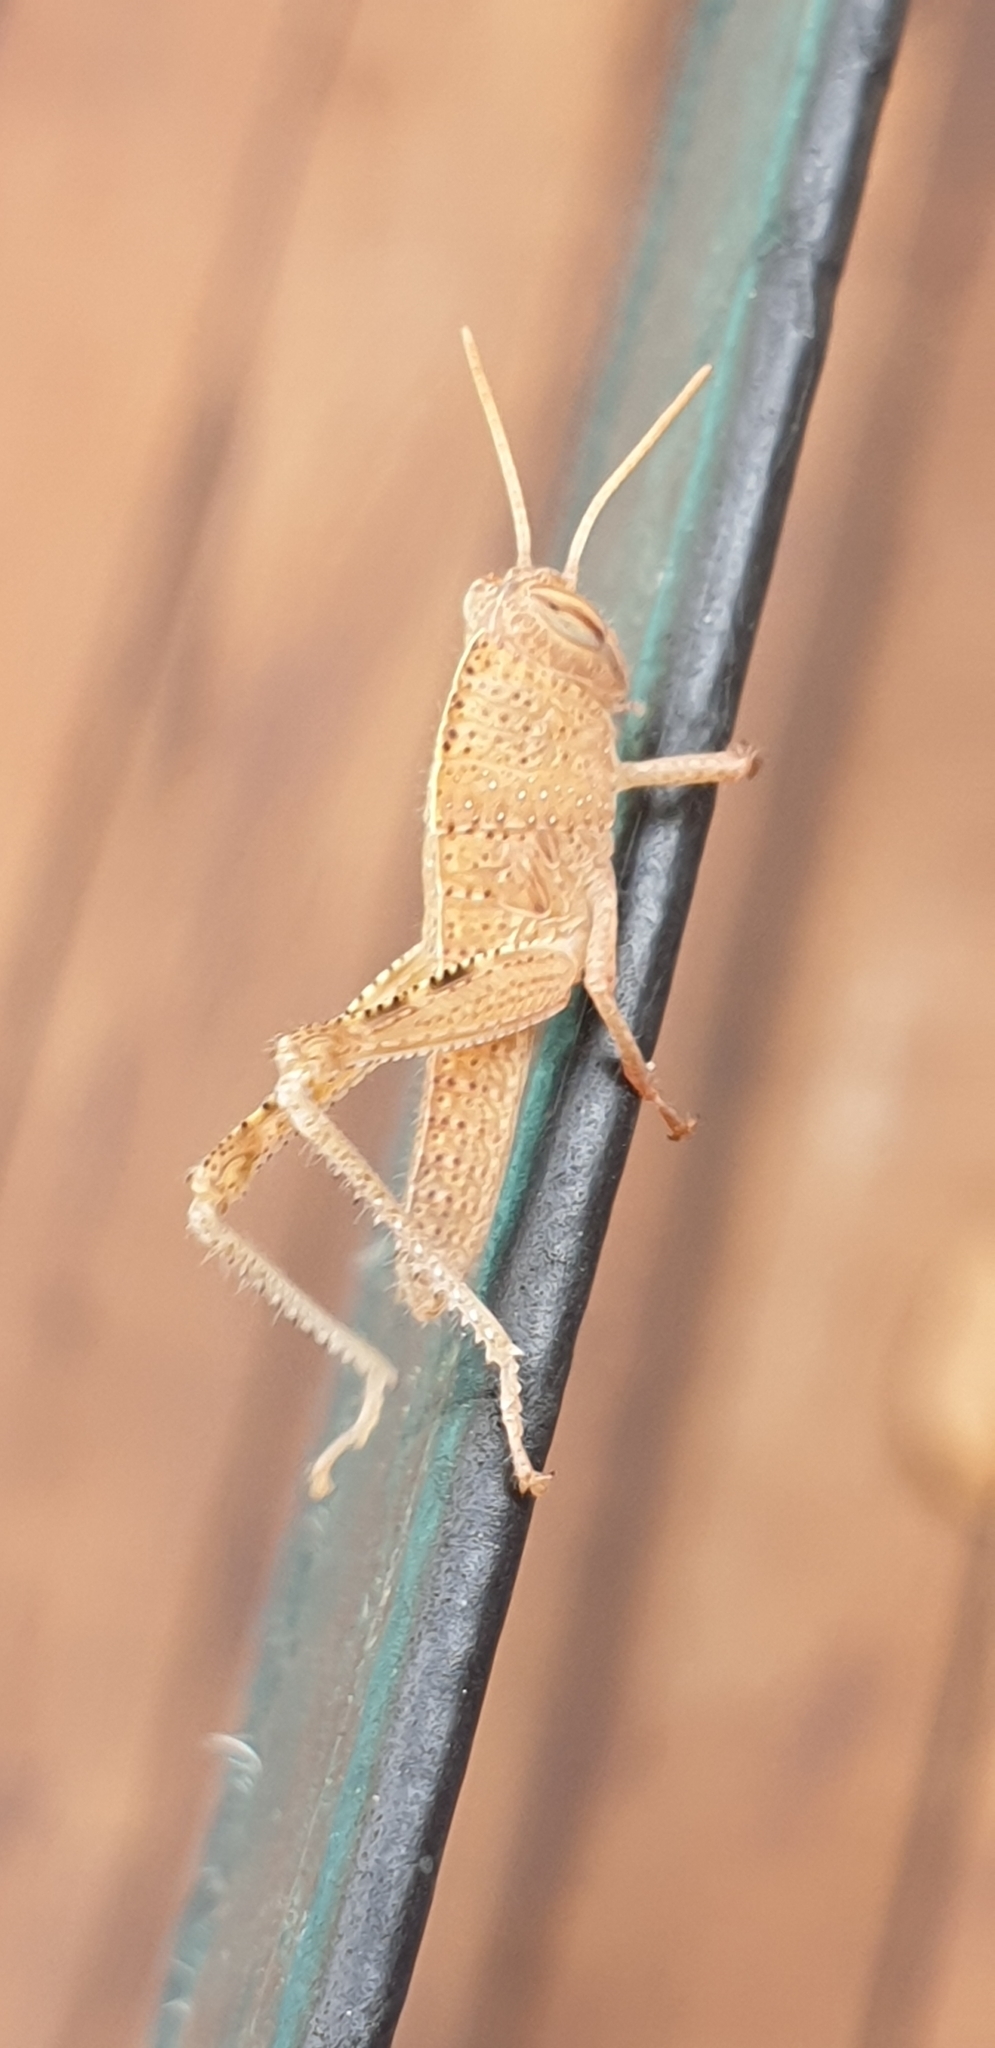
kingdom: Animalia
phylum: Arthropoda
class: Insecta
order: Orthoptera
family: Acrididae
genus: Anacridium
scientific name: Anacridium aegyptium
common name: Egyptian grasshopper
